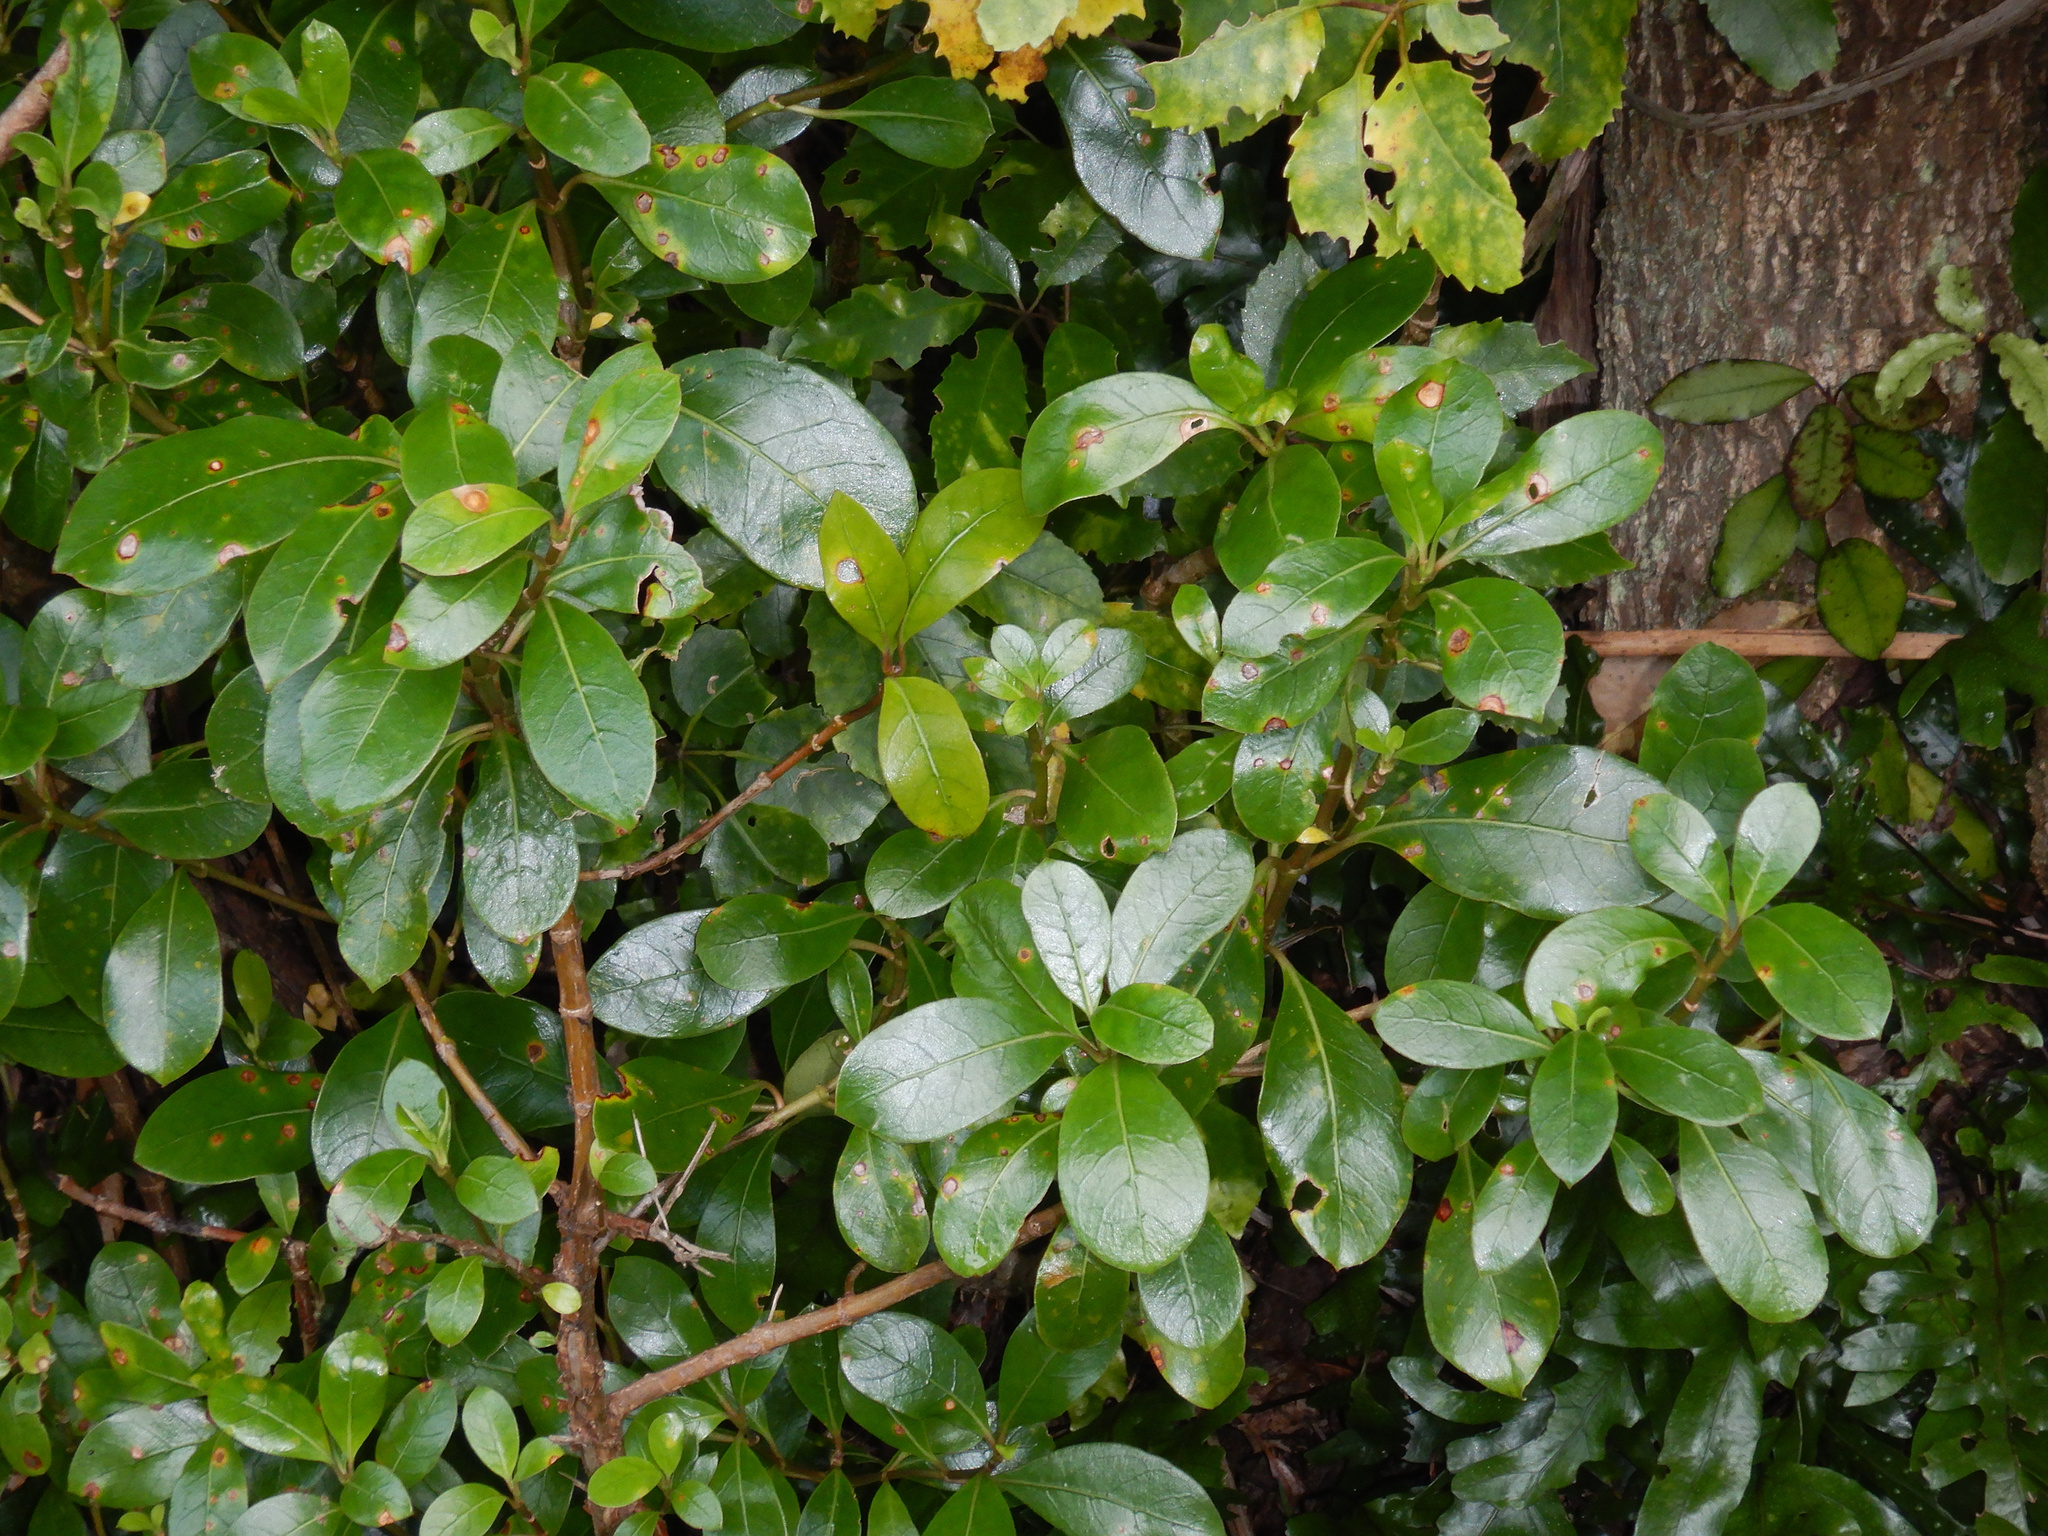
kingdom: Plantae
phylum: Tracheophyta
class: Magnoliopsida
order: Gentianales
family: Rubiaceae
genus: Coprosma
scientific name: Coprosma lucida
